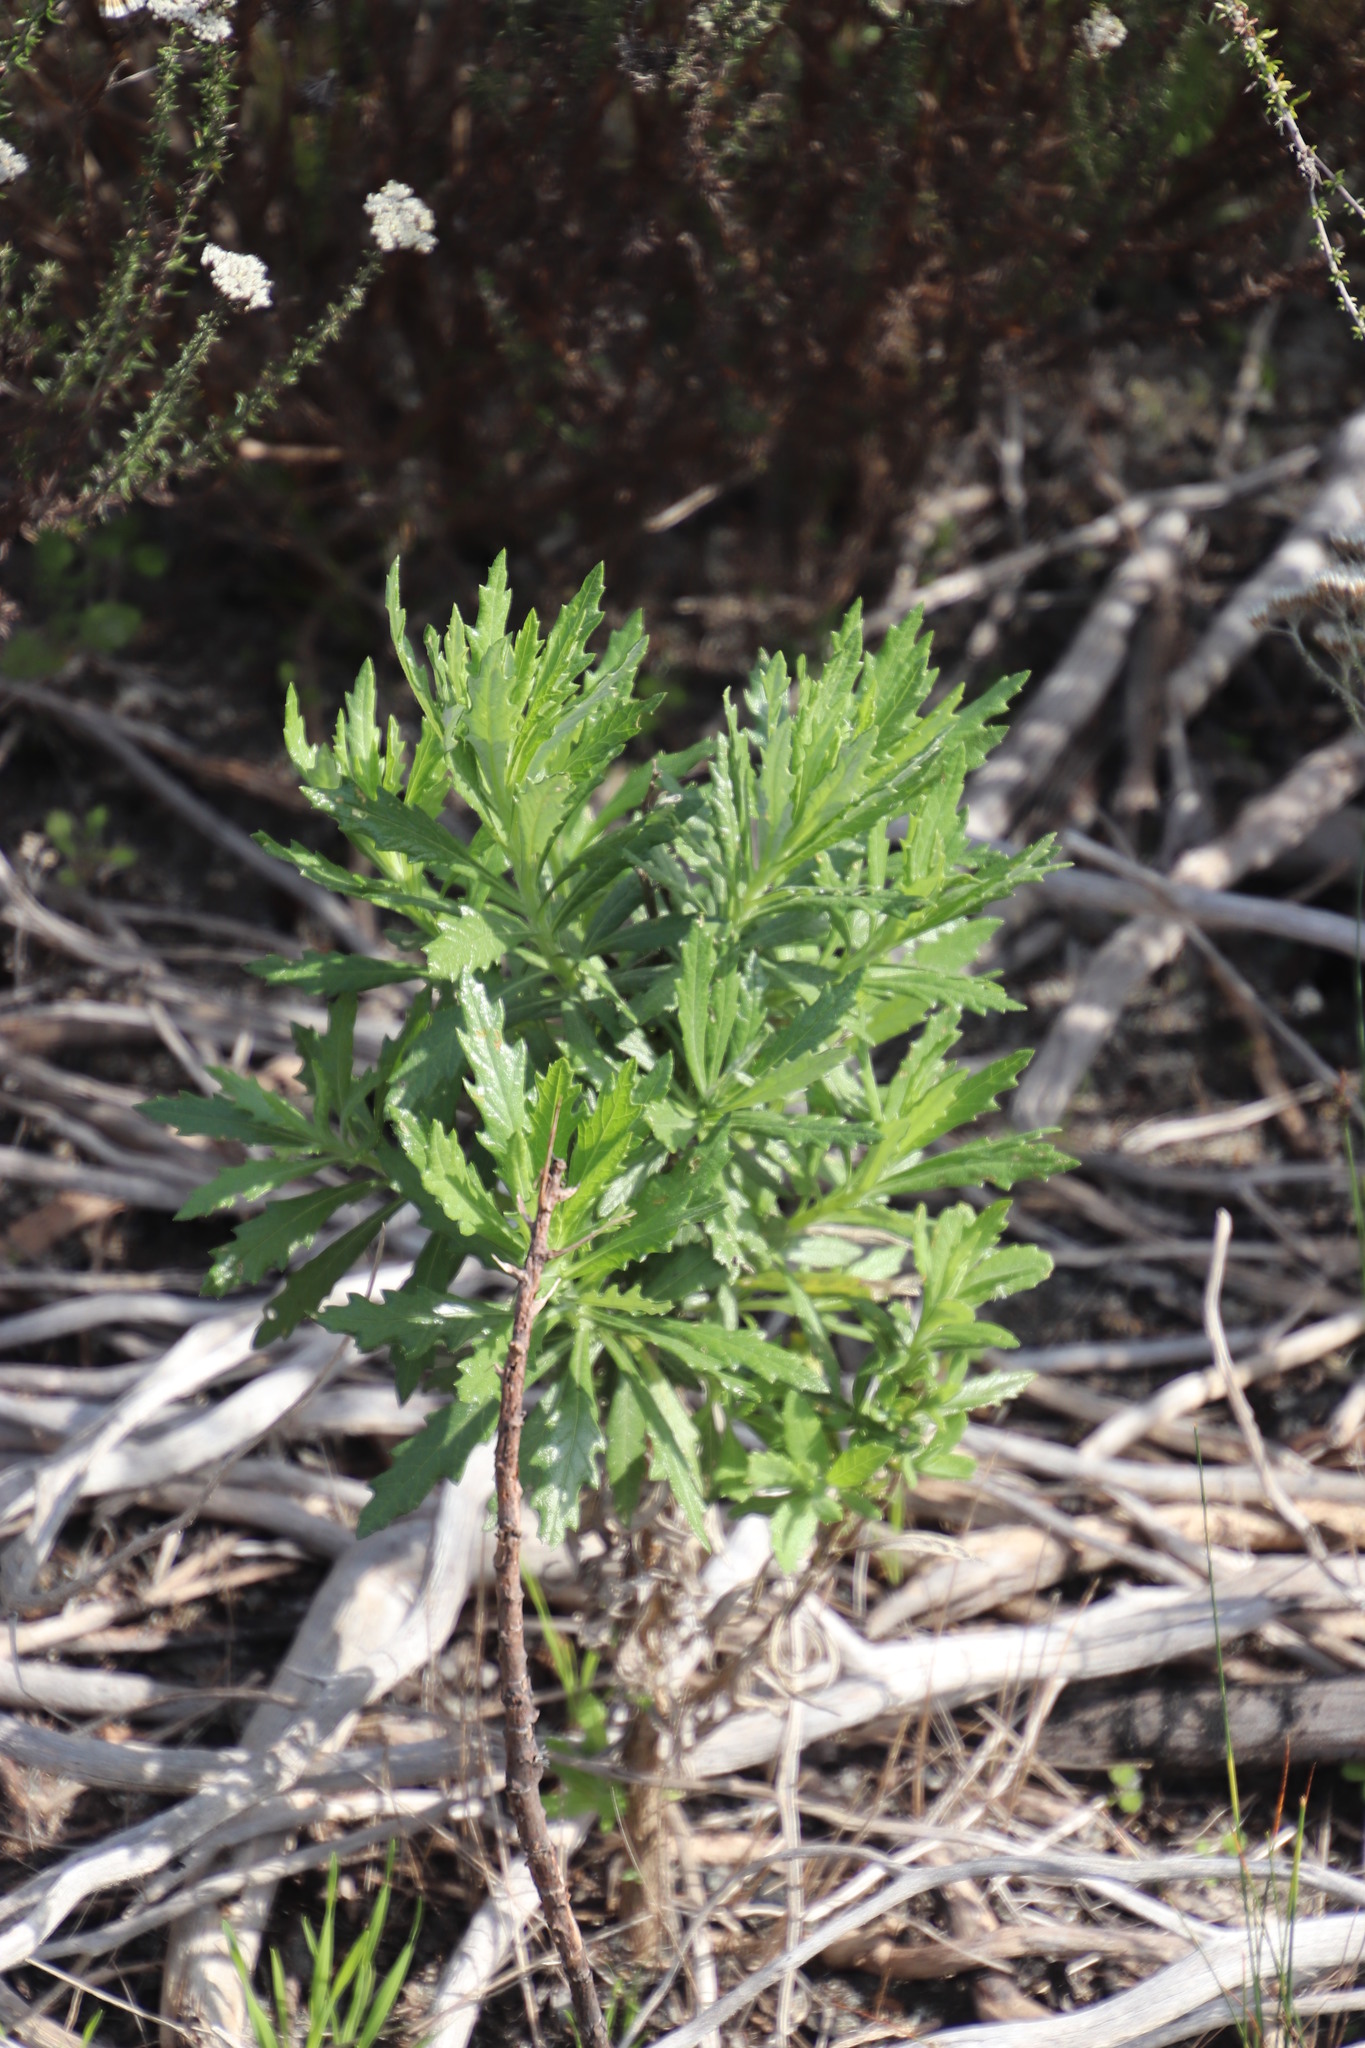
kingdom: Plantae
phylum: Tracheophyta
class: Magnoliopsida
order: Asterales
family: Asteraceae
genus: Senecio
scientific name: Senecio pterophorus
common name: Shoddy ragwort
